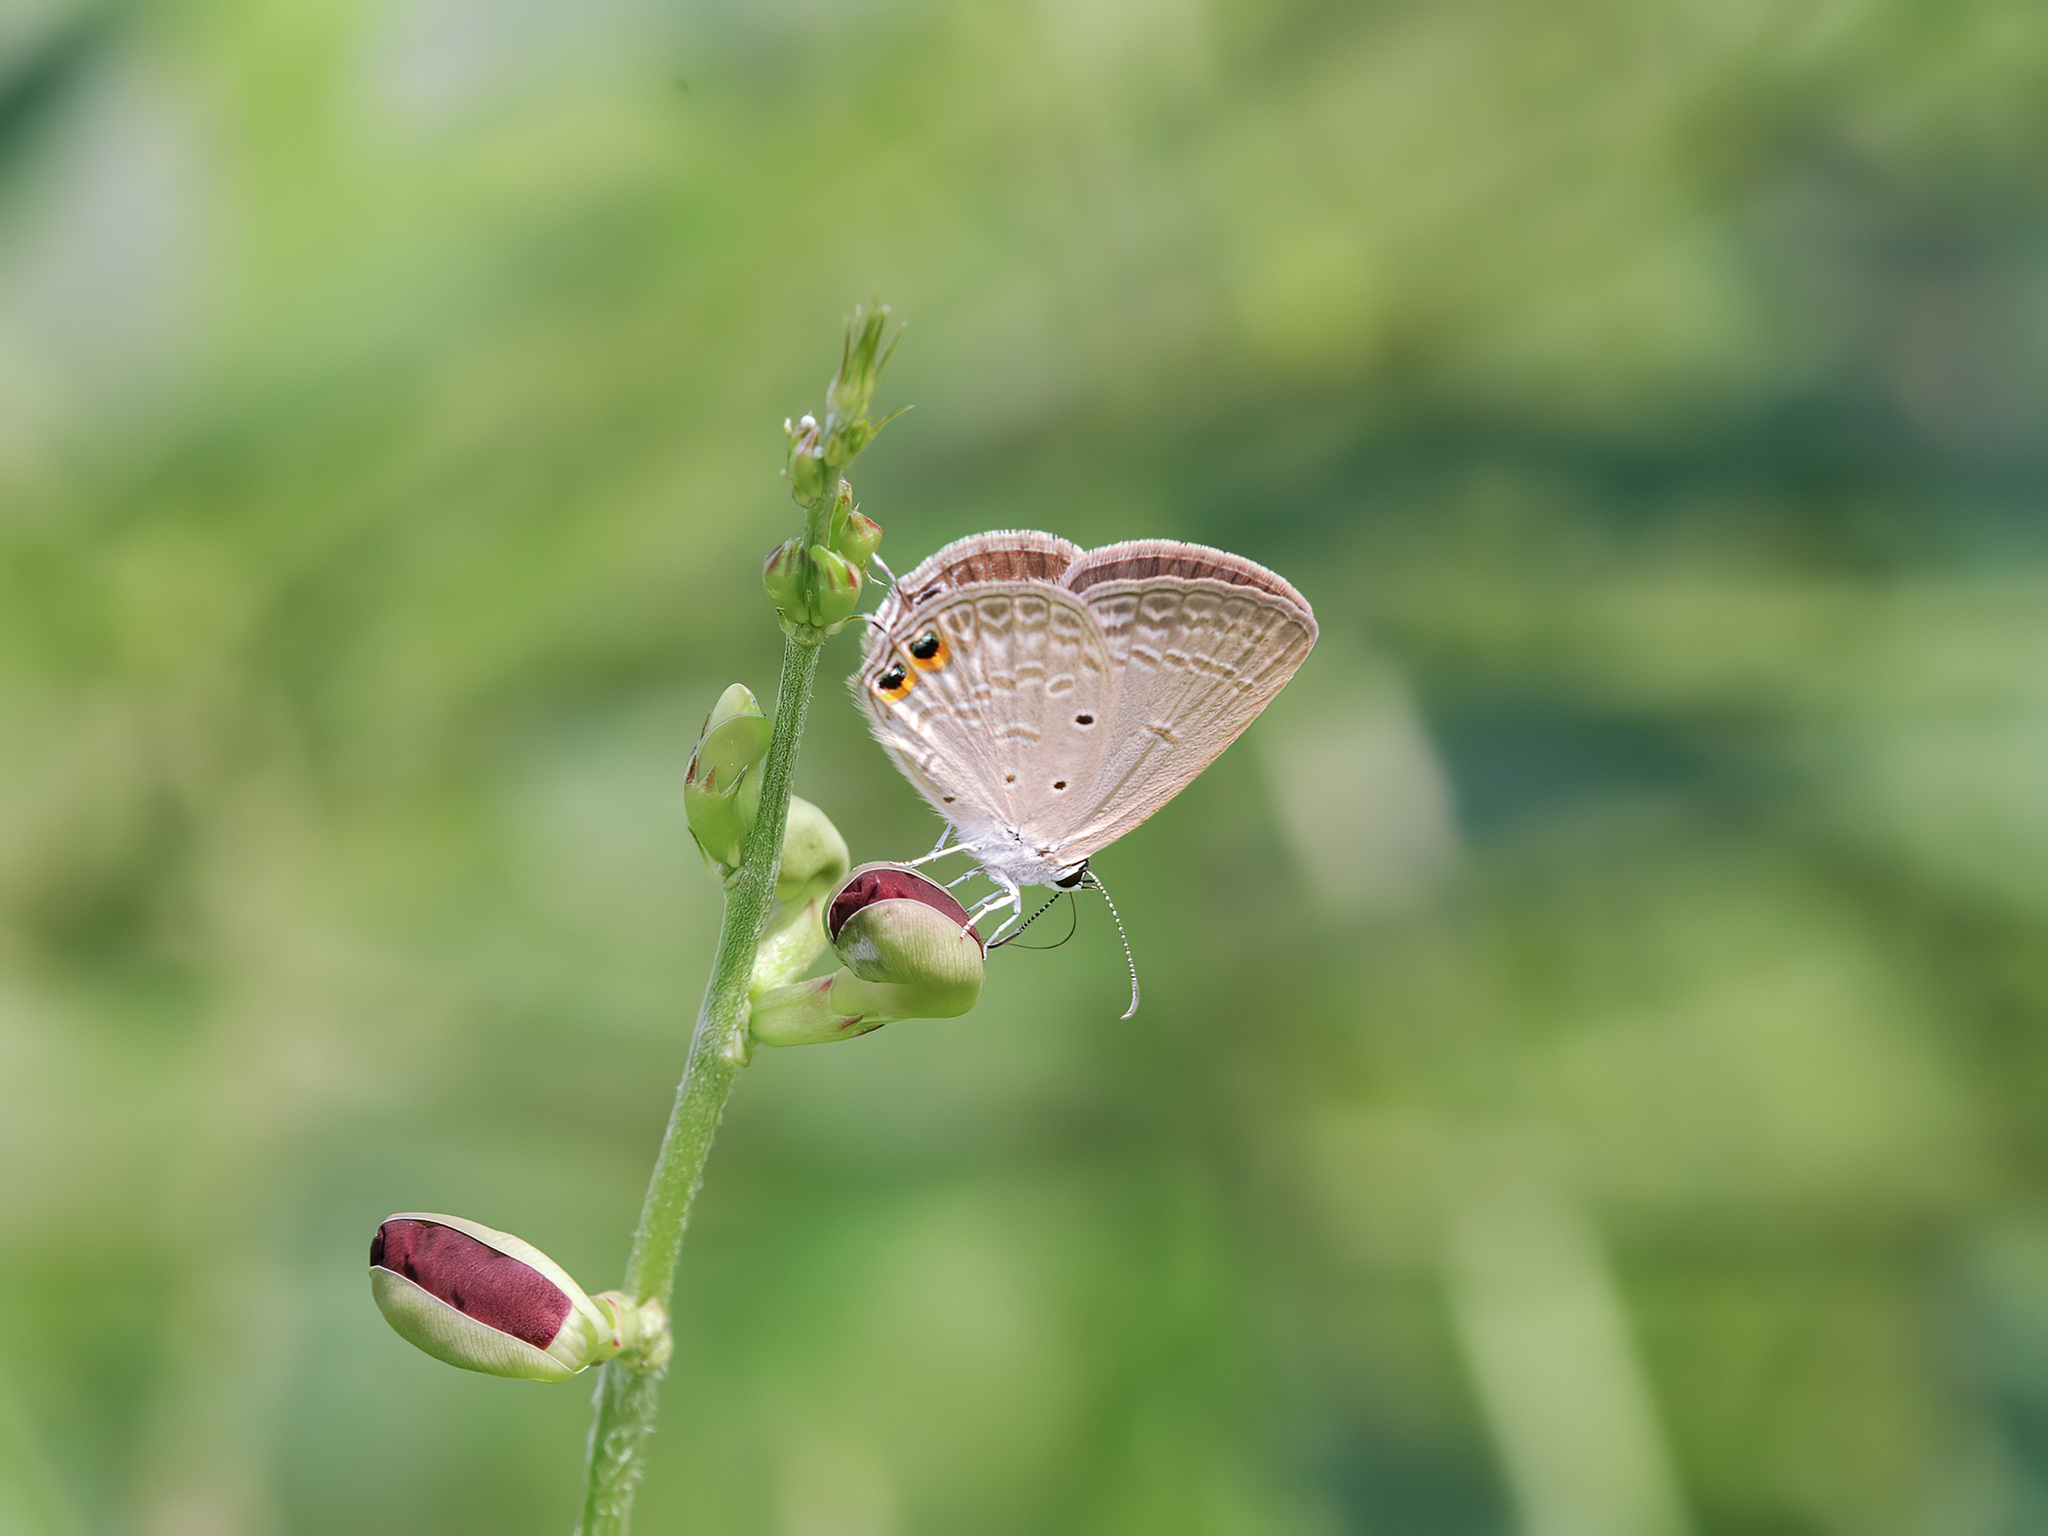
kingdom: Animalia
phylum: Arthropoda
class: Insecta
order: Lepidoptera
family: Lycaenidae
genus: Euchrysops
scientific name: Euchrysops cnejus
